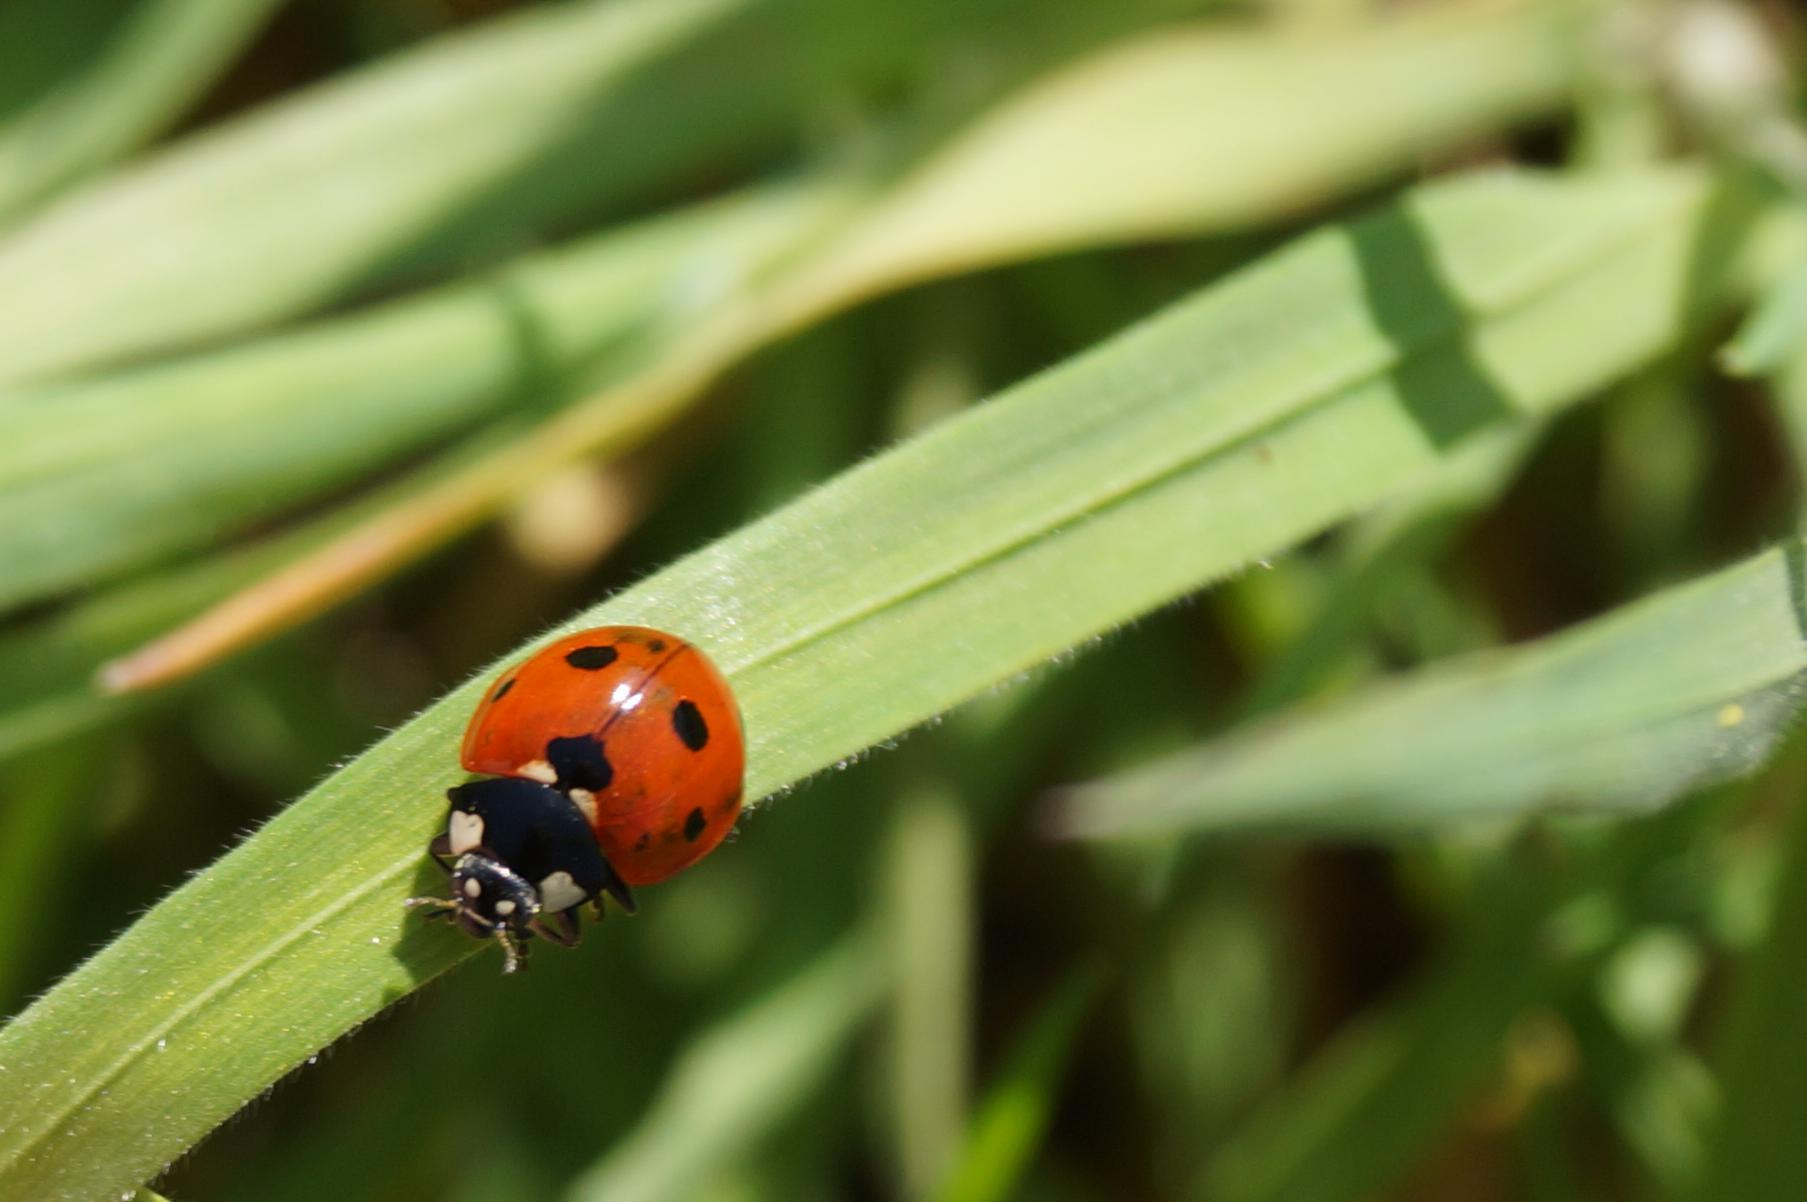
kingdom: Animalia
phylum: Arthropoda
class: Insecta
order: Coleoptera
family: Coccinellidae
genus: Coccinella
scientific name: Coccinella septempunctata
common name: Sevenspotted lady beetle
